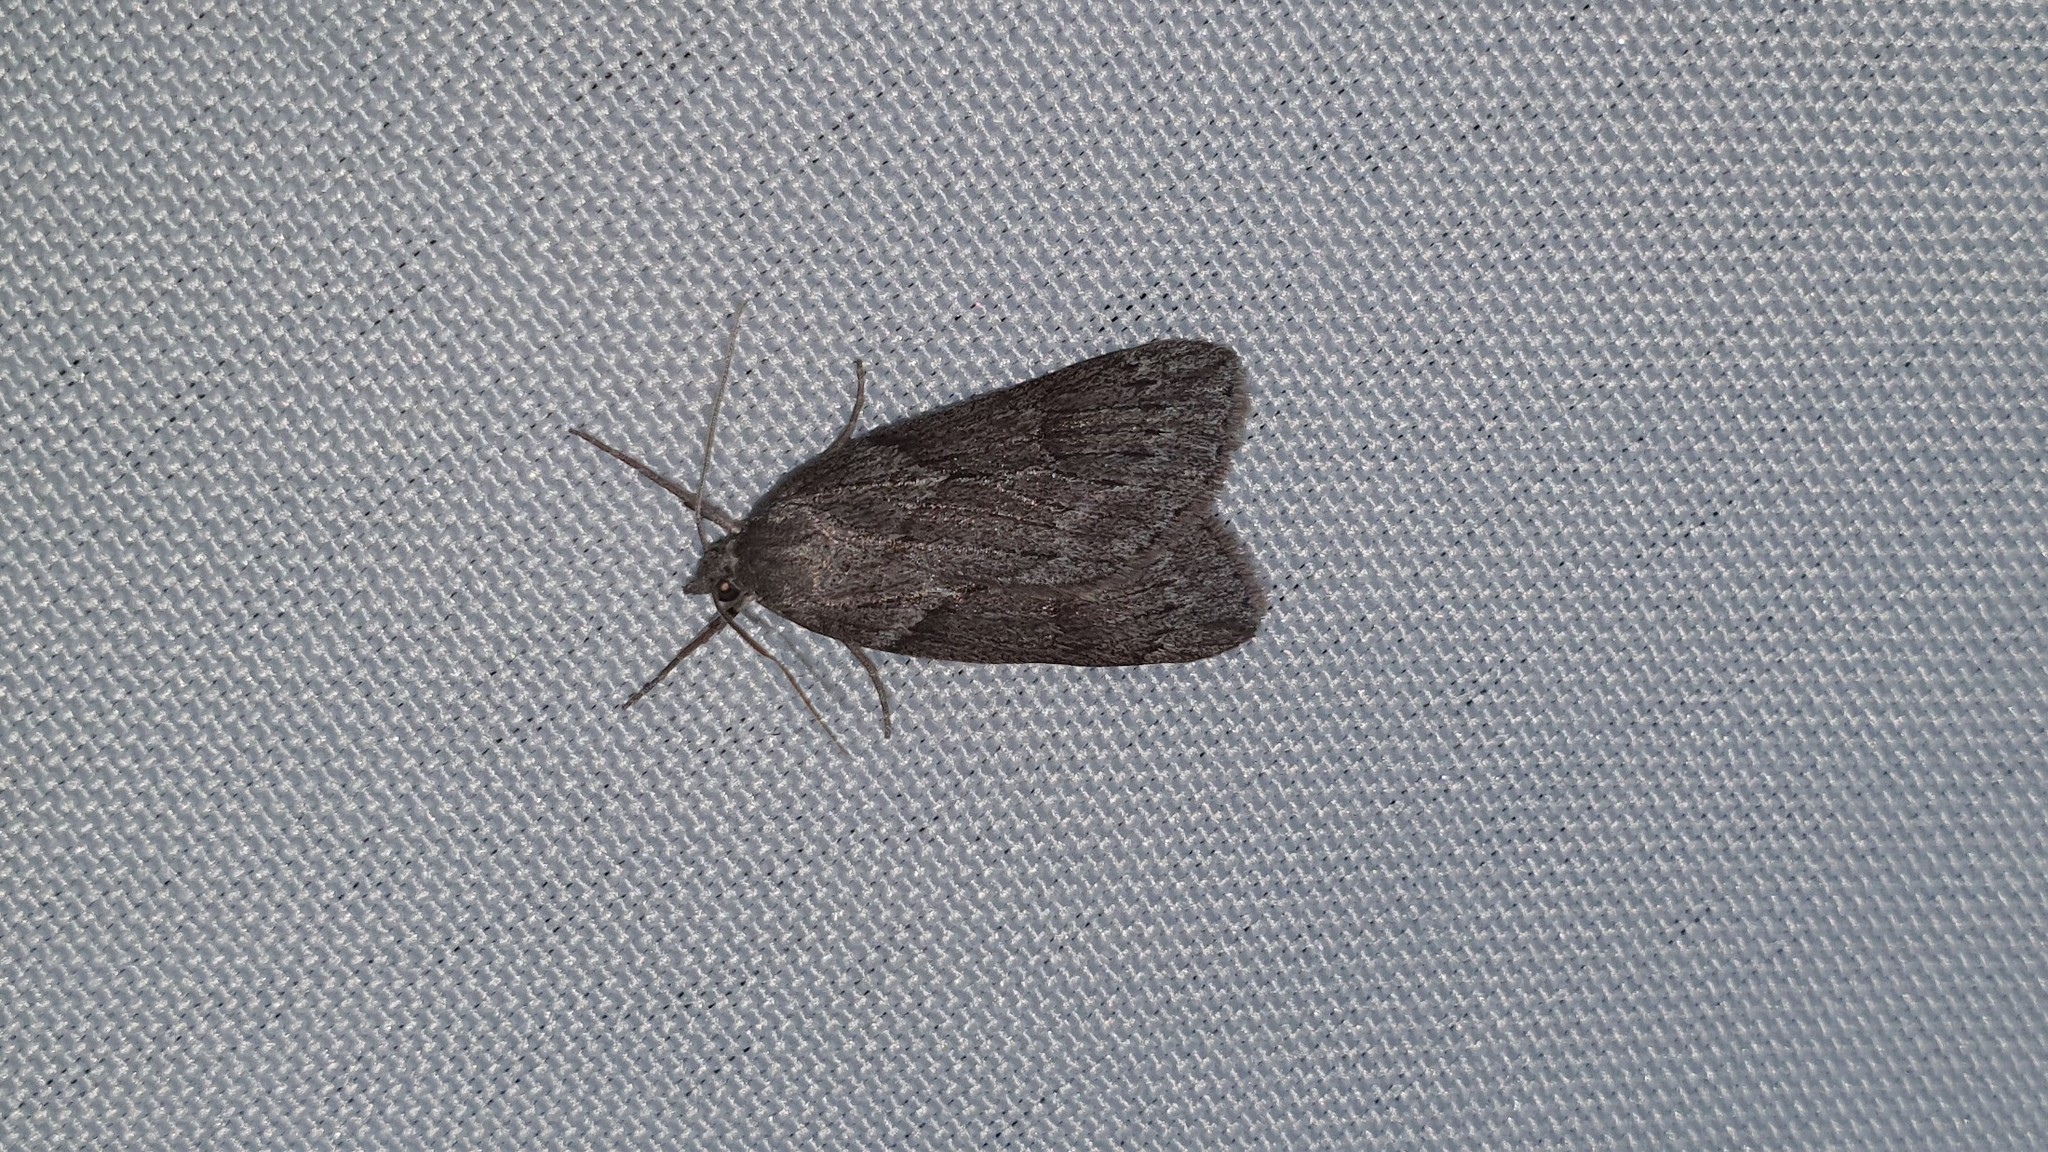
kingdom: Animalia
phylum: Arthropoda
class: Insecta
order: Lepidoptera
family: Geometridae
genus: Pachycnemia
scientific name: Pachycnemia hippocastanaria
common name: Horse chestnut
